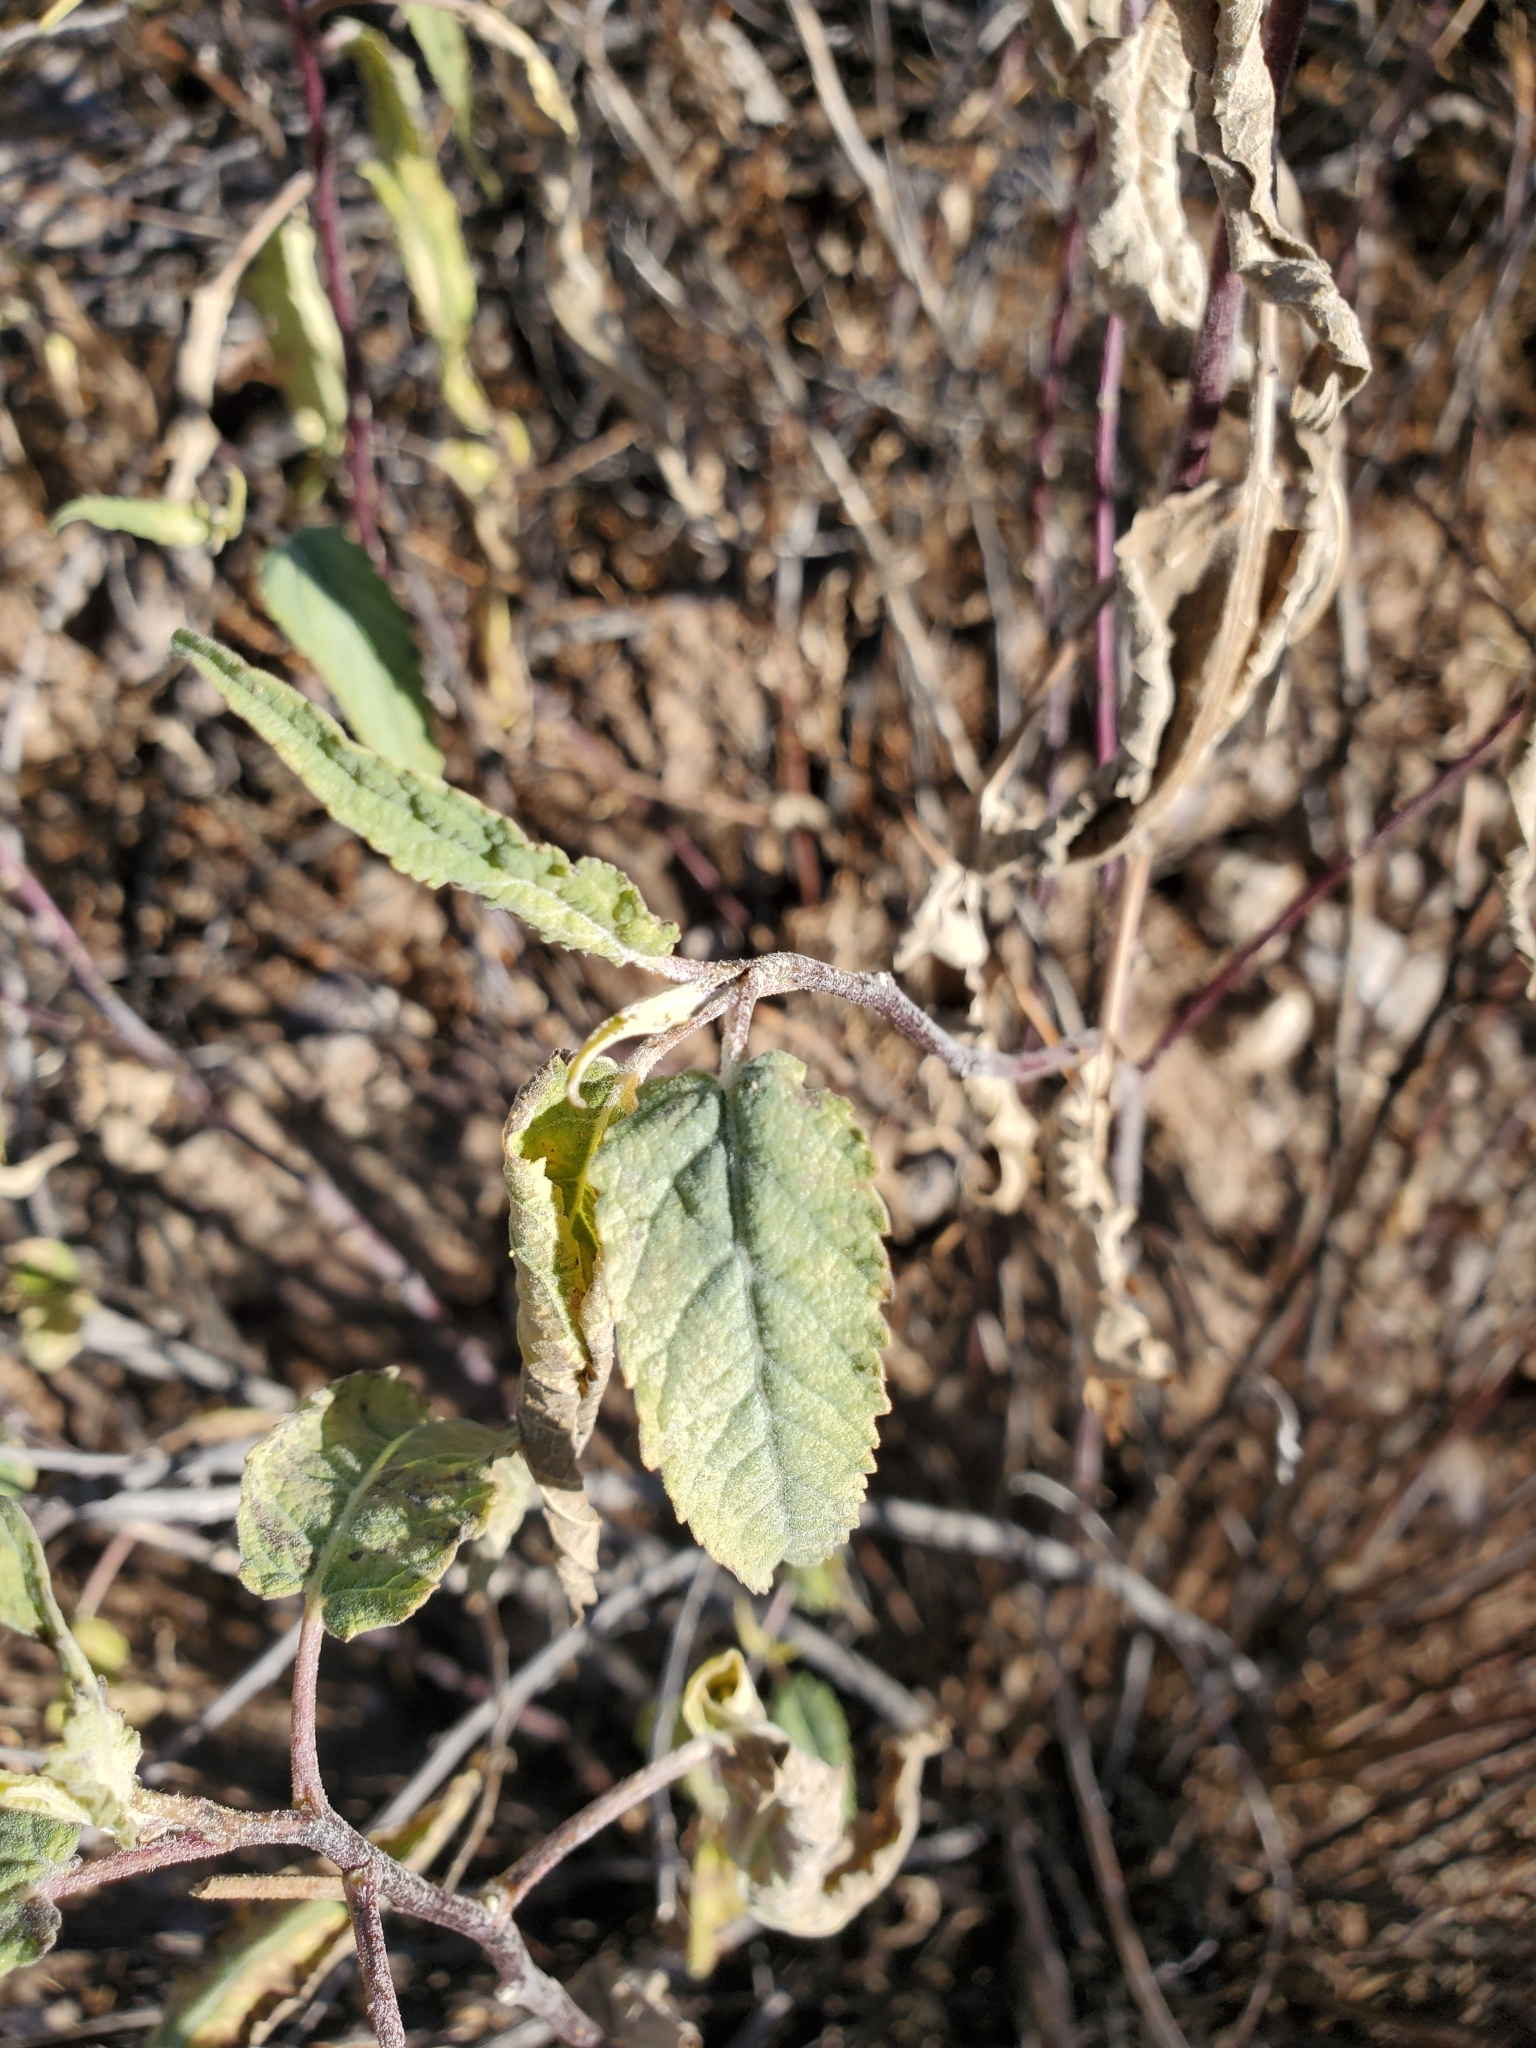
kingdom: Plantae
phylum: Tracheophyta
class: Magnoliopsida
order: Asterales
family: Asteraceae
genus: Ambrosia
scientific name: Ambrosia ambrosioides
